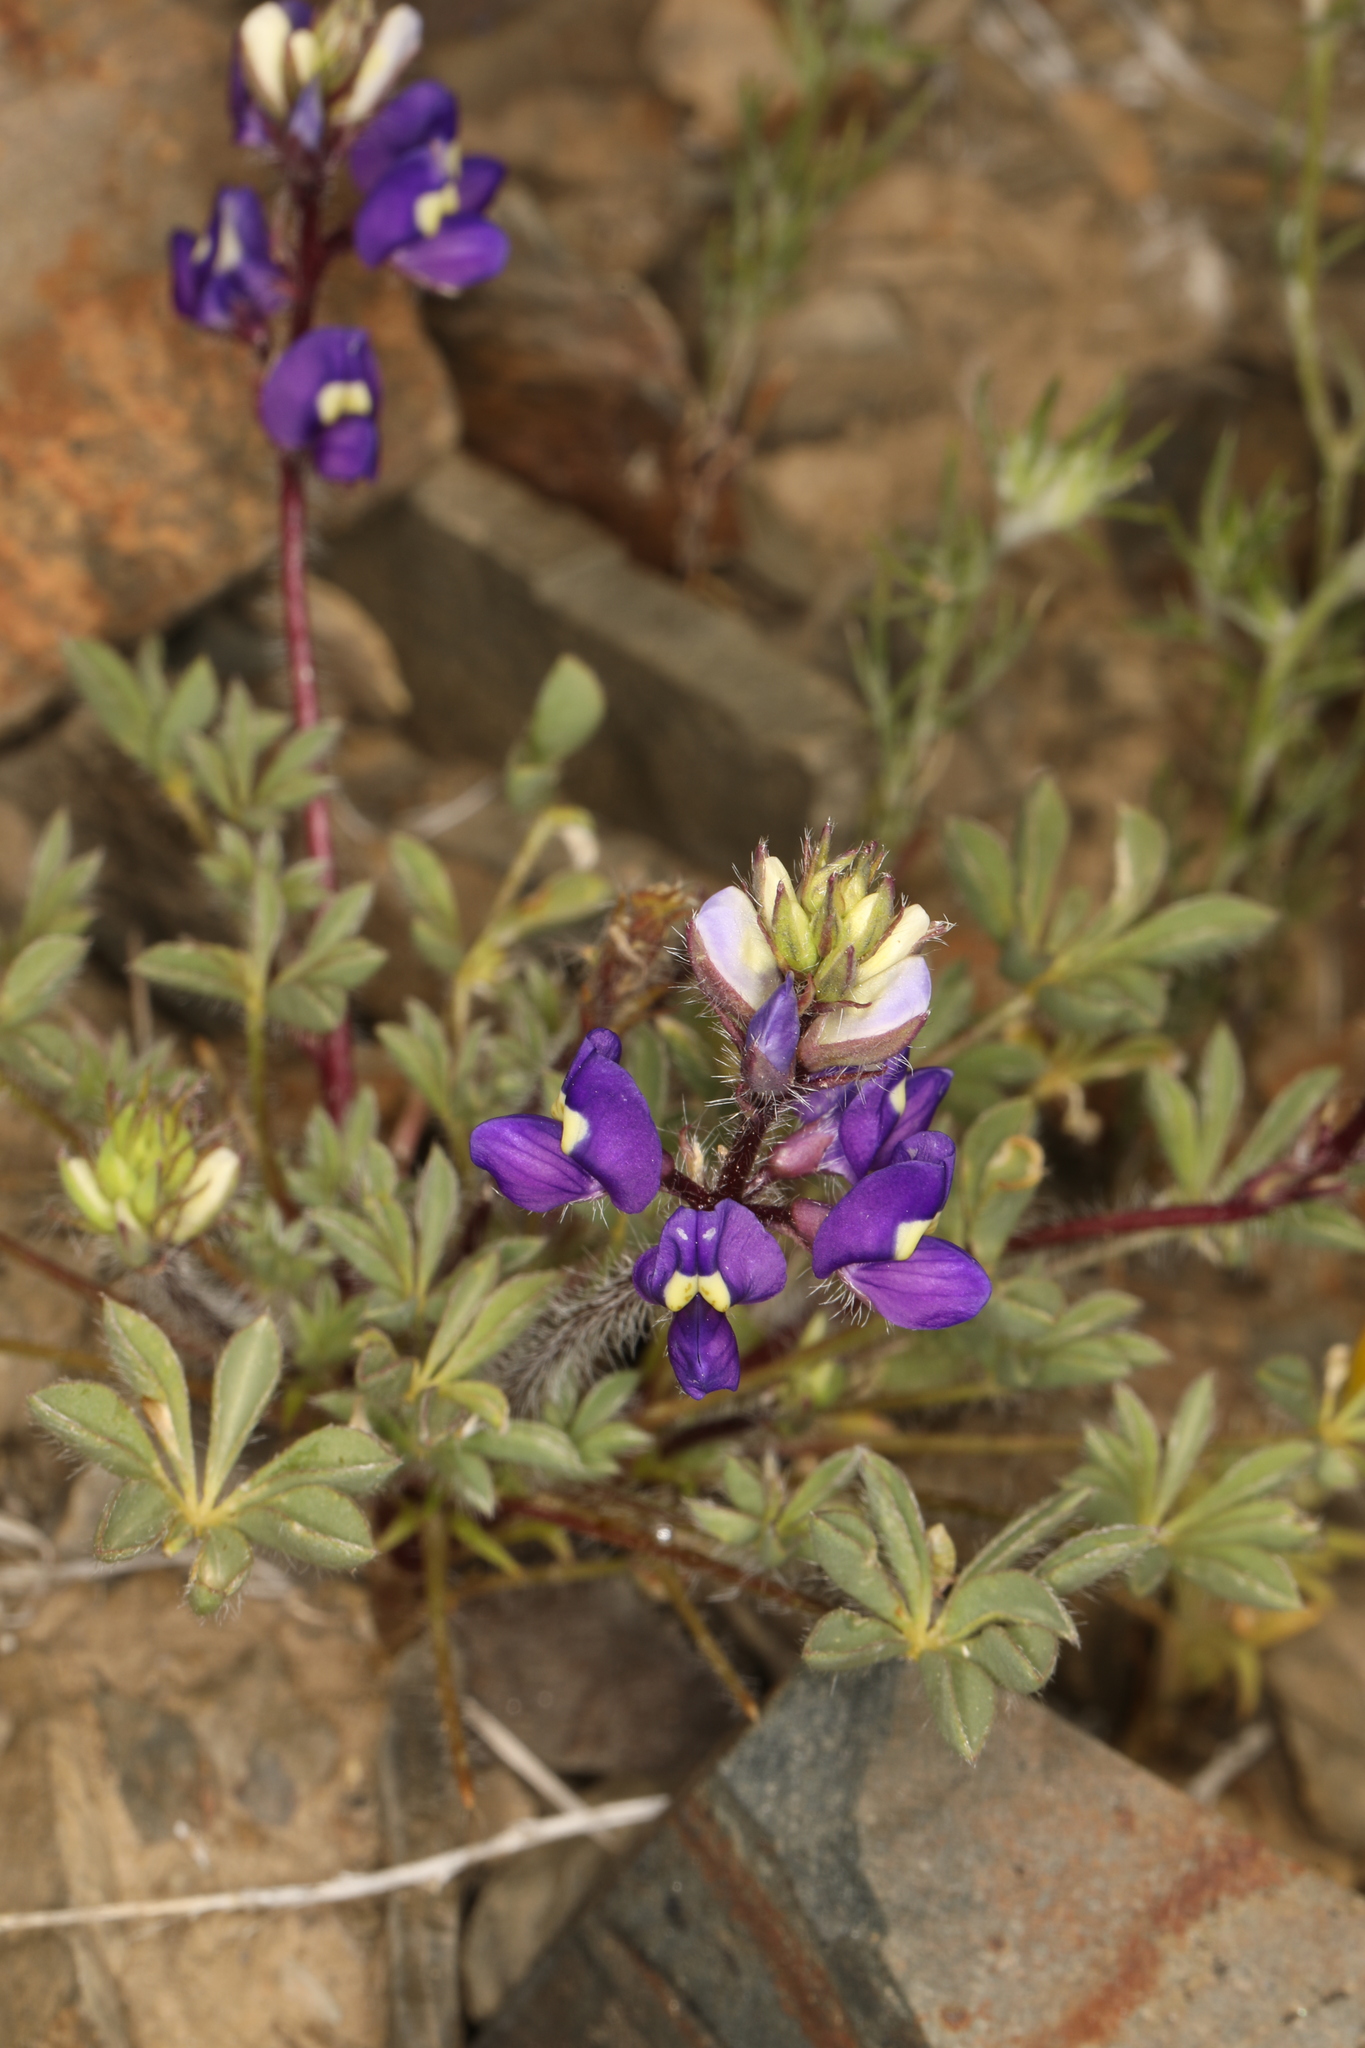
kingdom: Plantae
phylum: Tracheophyta
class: Magnoliopsida
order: Fabales
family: Fabaceae
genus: Lupinus
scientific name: Lupinus flavoculatus
